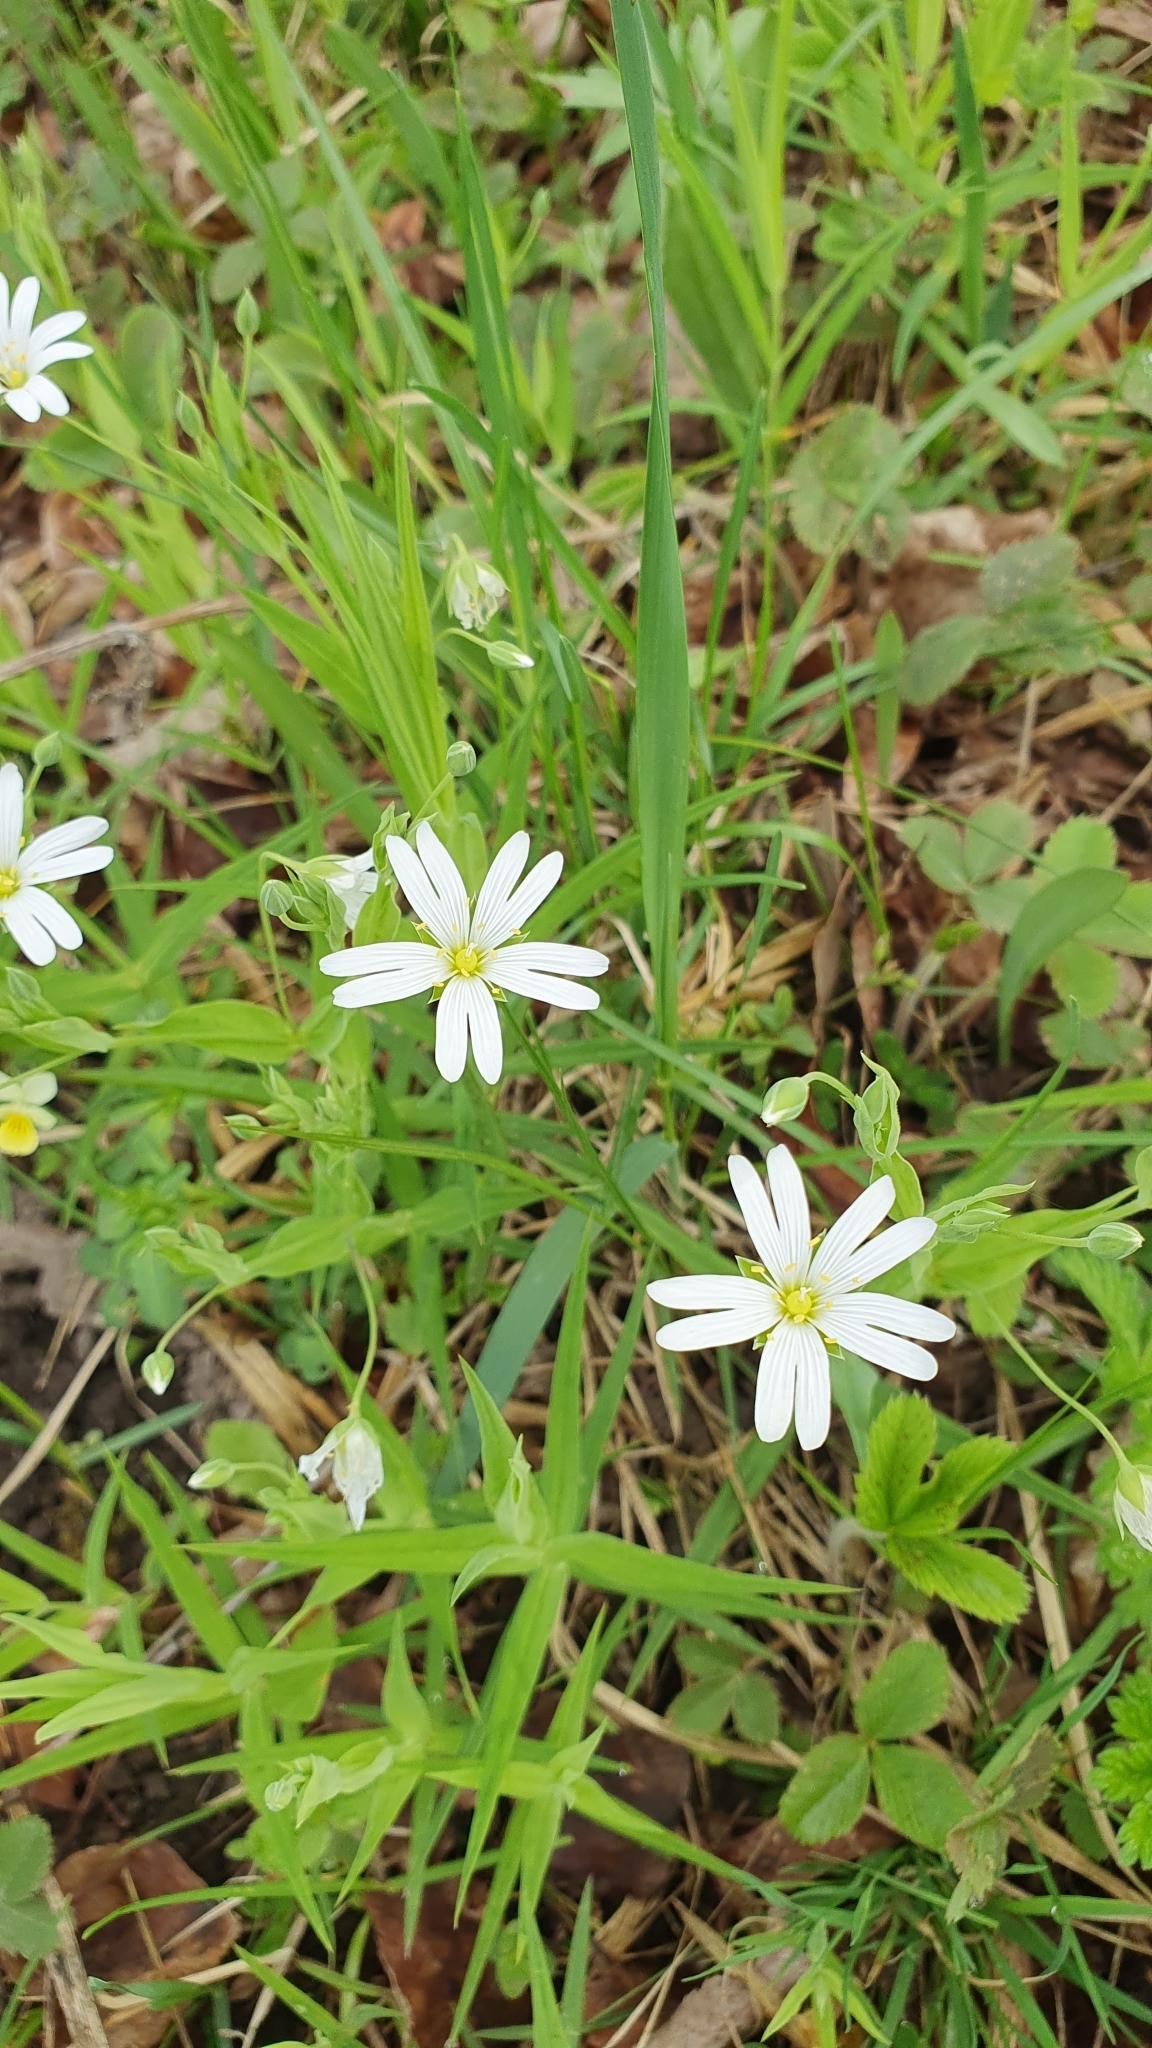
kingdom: Plantae
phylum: Tracheophyta
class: Magnoliopsida
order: Caryophyllales
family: Caryophyllaceae
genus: Rabelera
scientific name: Rabelera holostea
